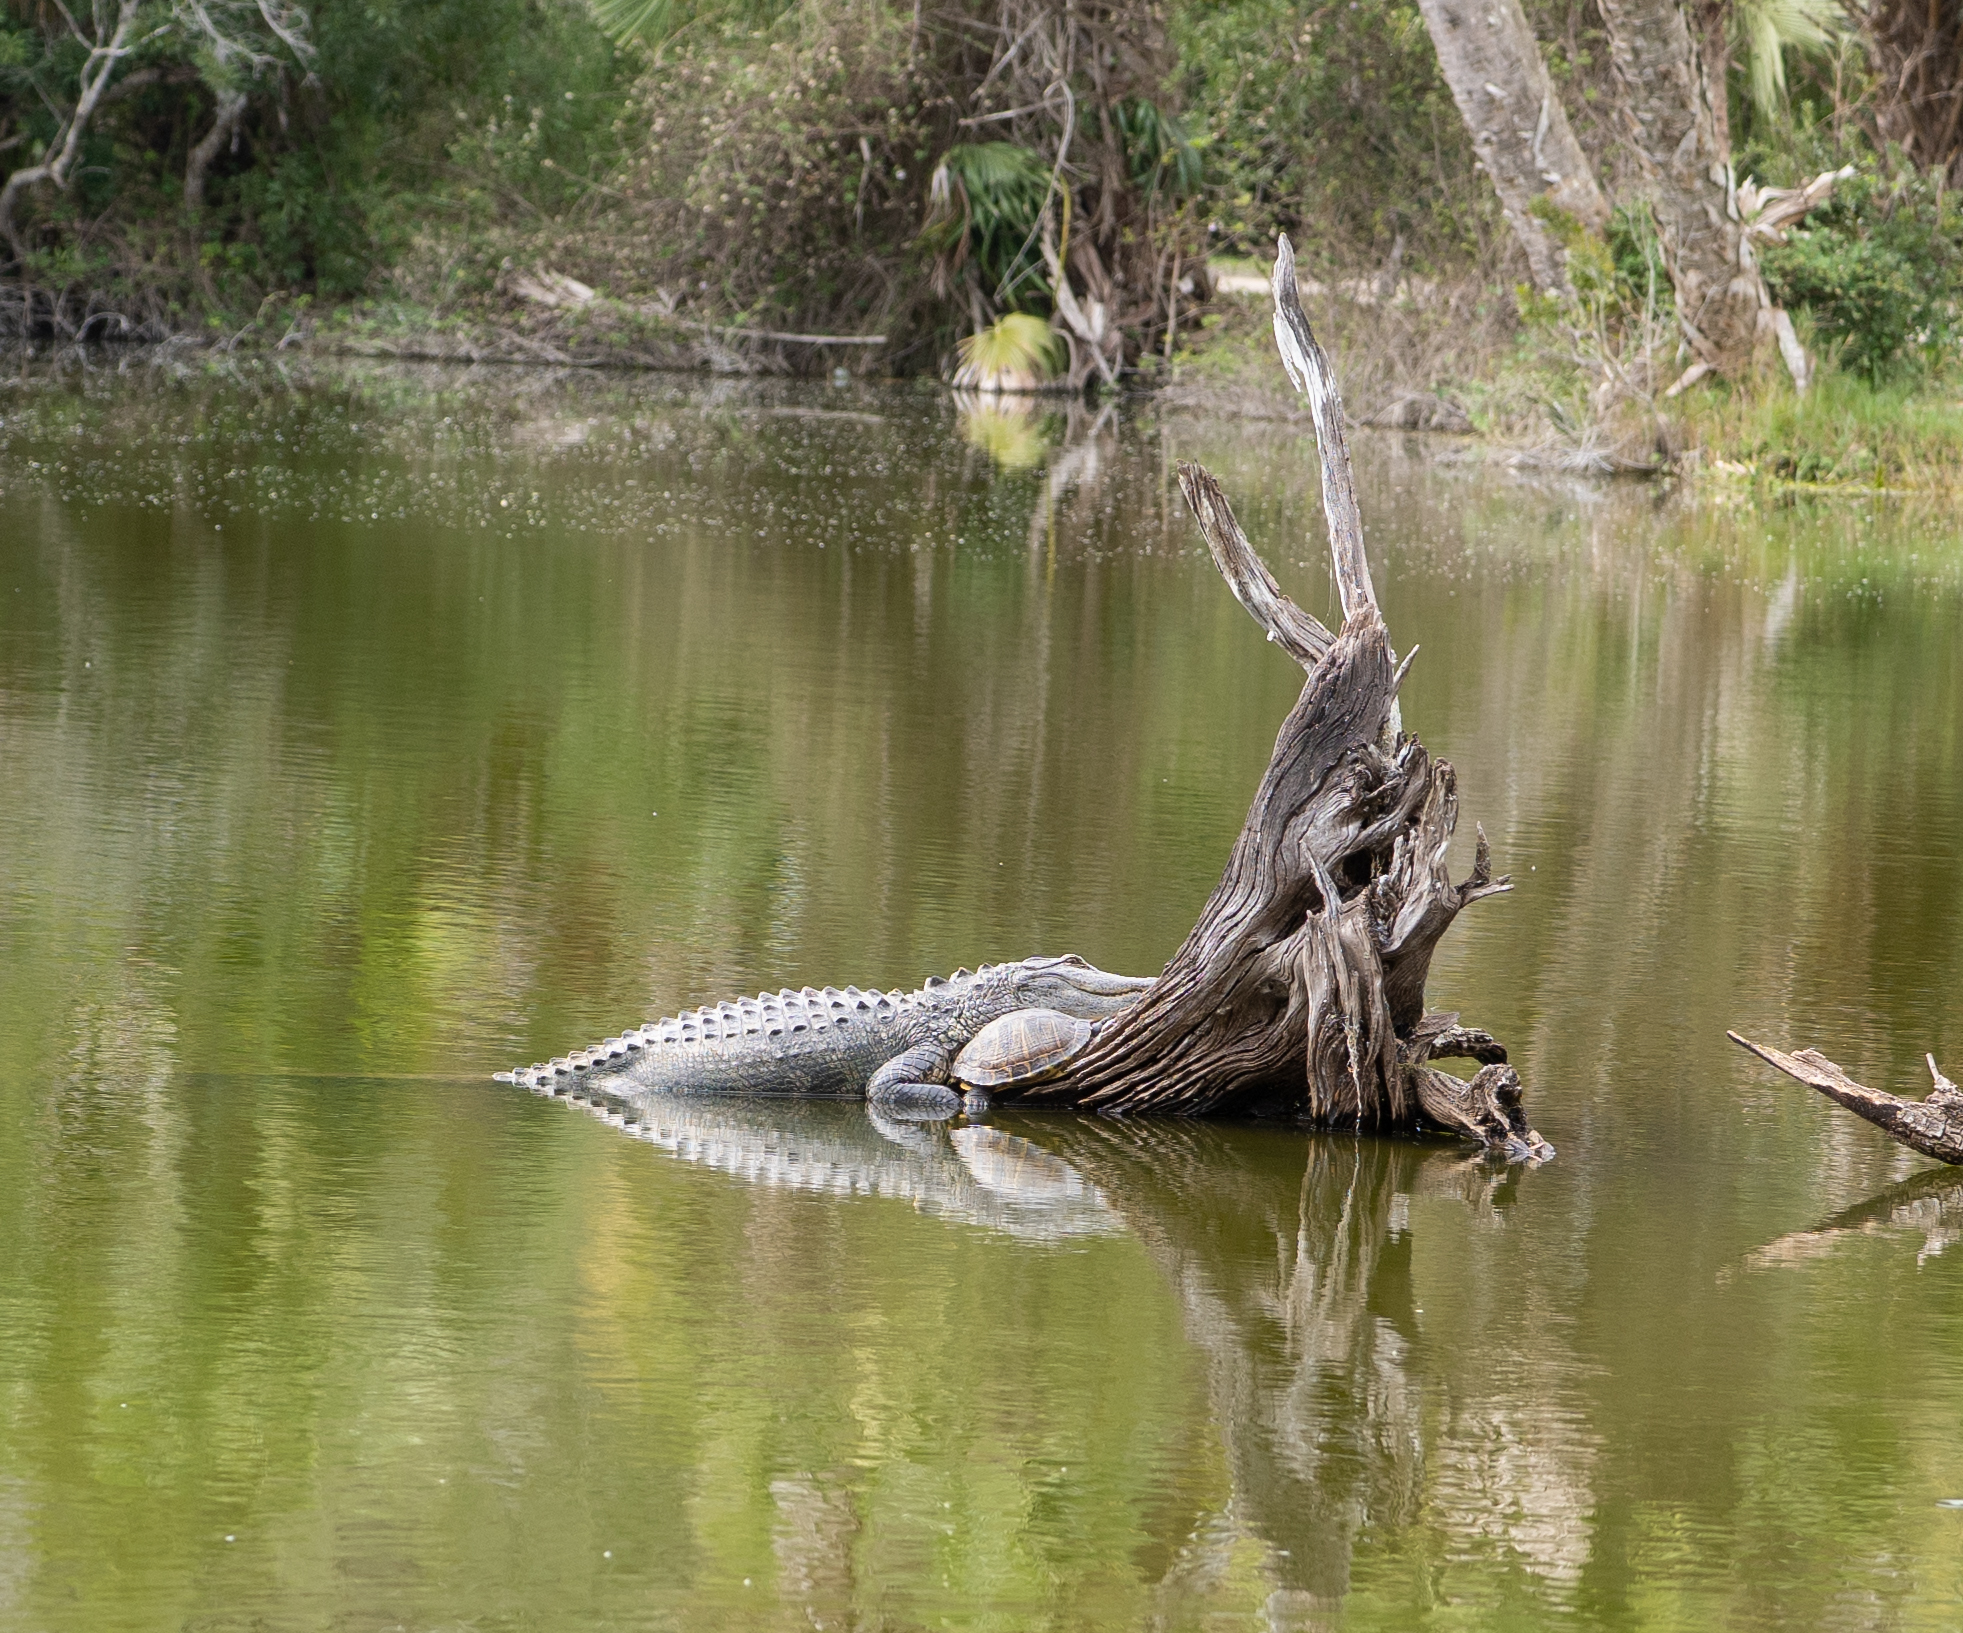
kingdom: Animalia
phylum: Chordata
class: Testudines
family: Emydidae
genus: Trachemys
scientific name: Trachemys scripta
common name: Slider
